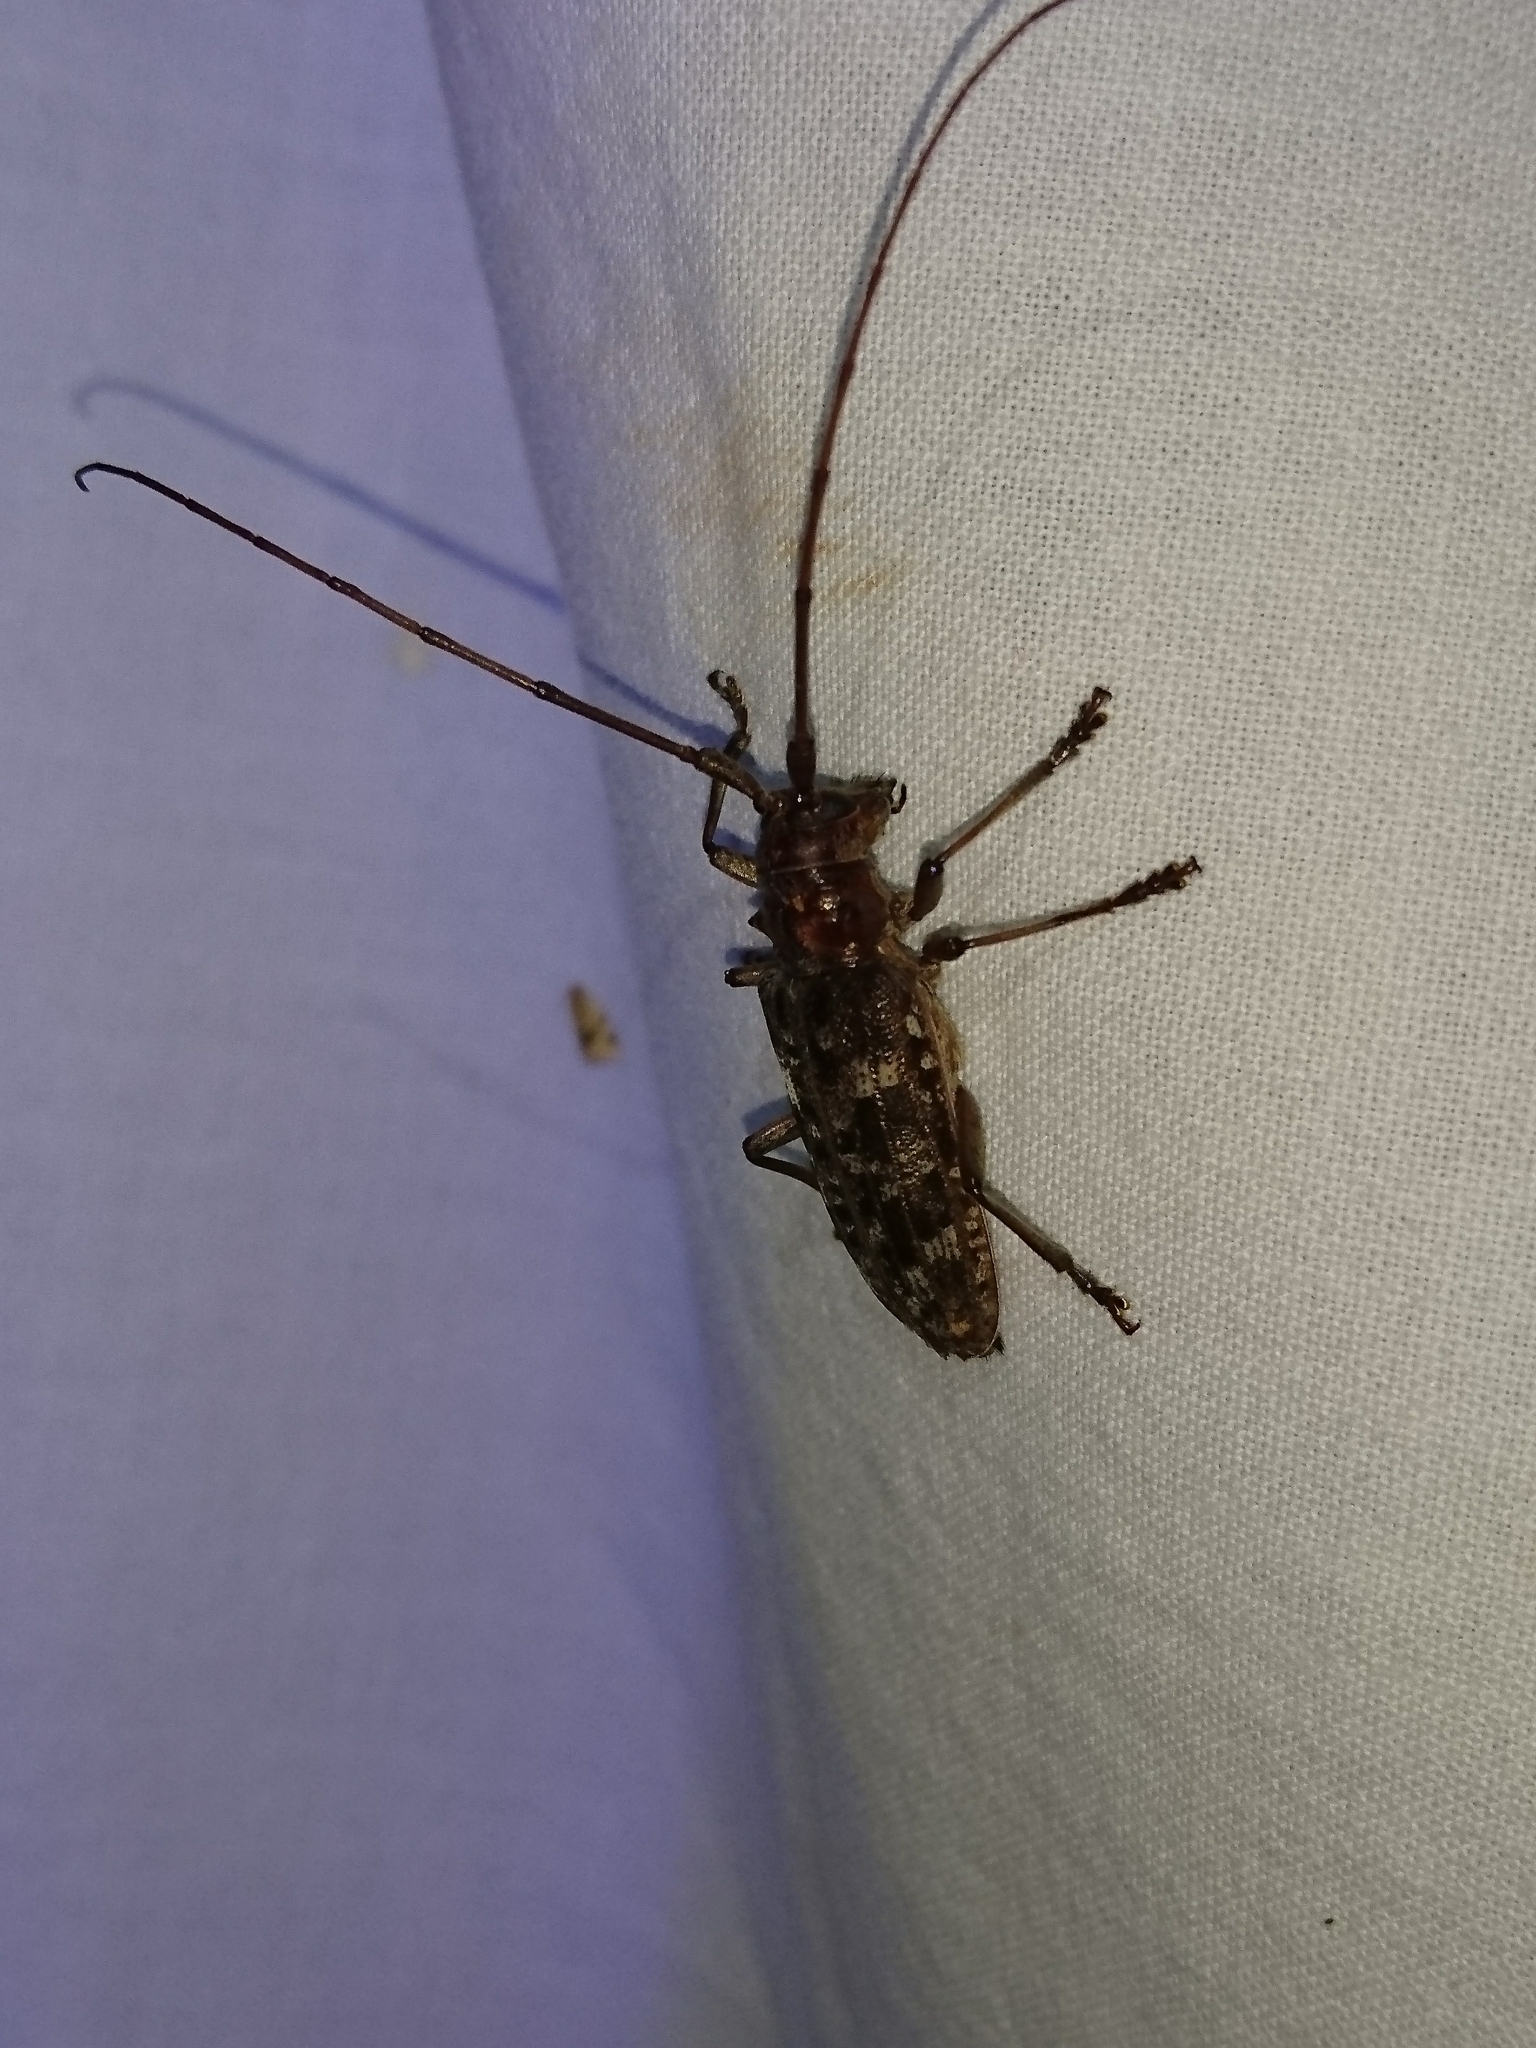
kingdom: Animalia
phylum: Arthropoda
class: Insecta
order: Coleoptera
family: Cerambycidae
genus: Monochamus
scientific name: Monochamus carolinensis
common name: Carolina pine sawyer
